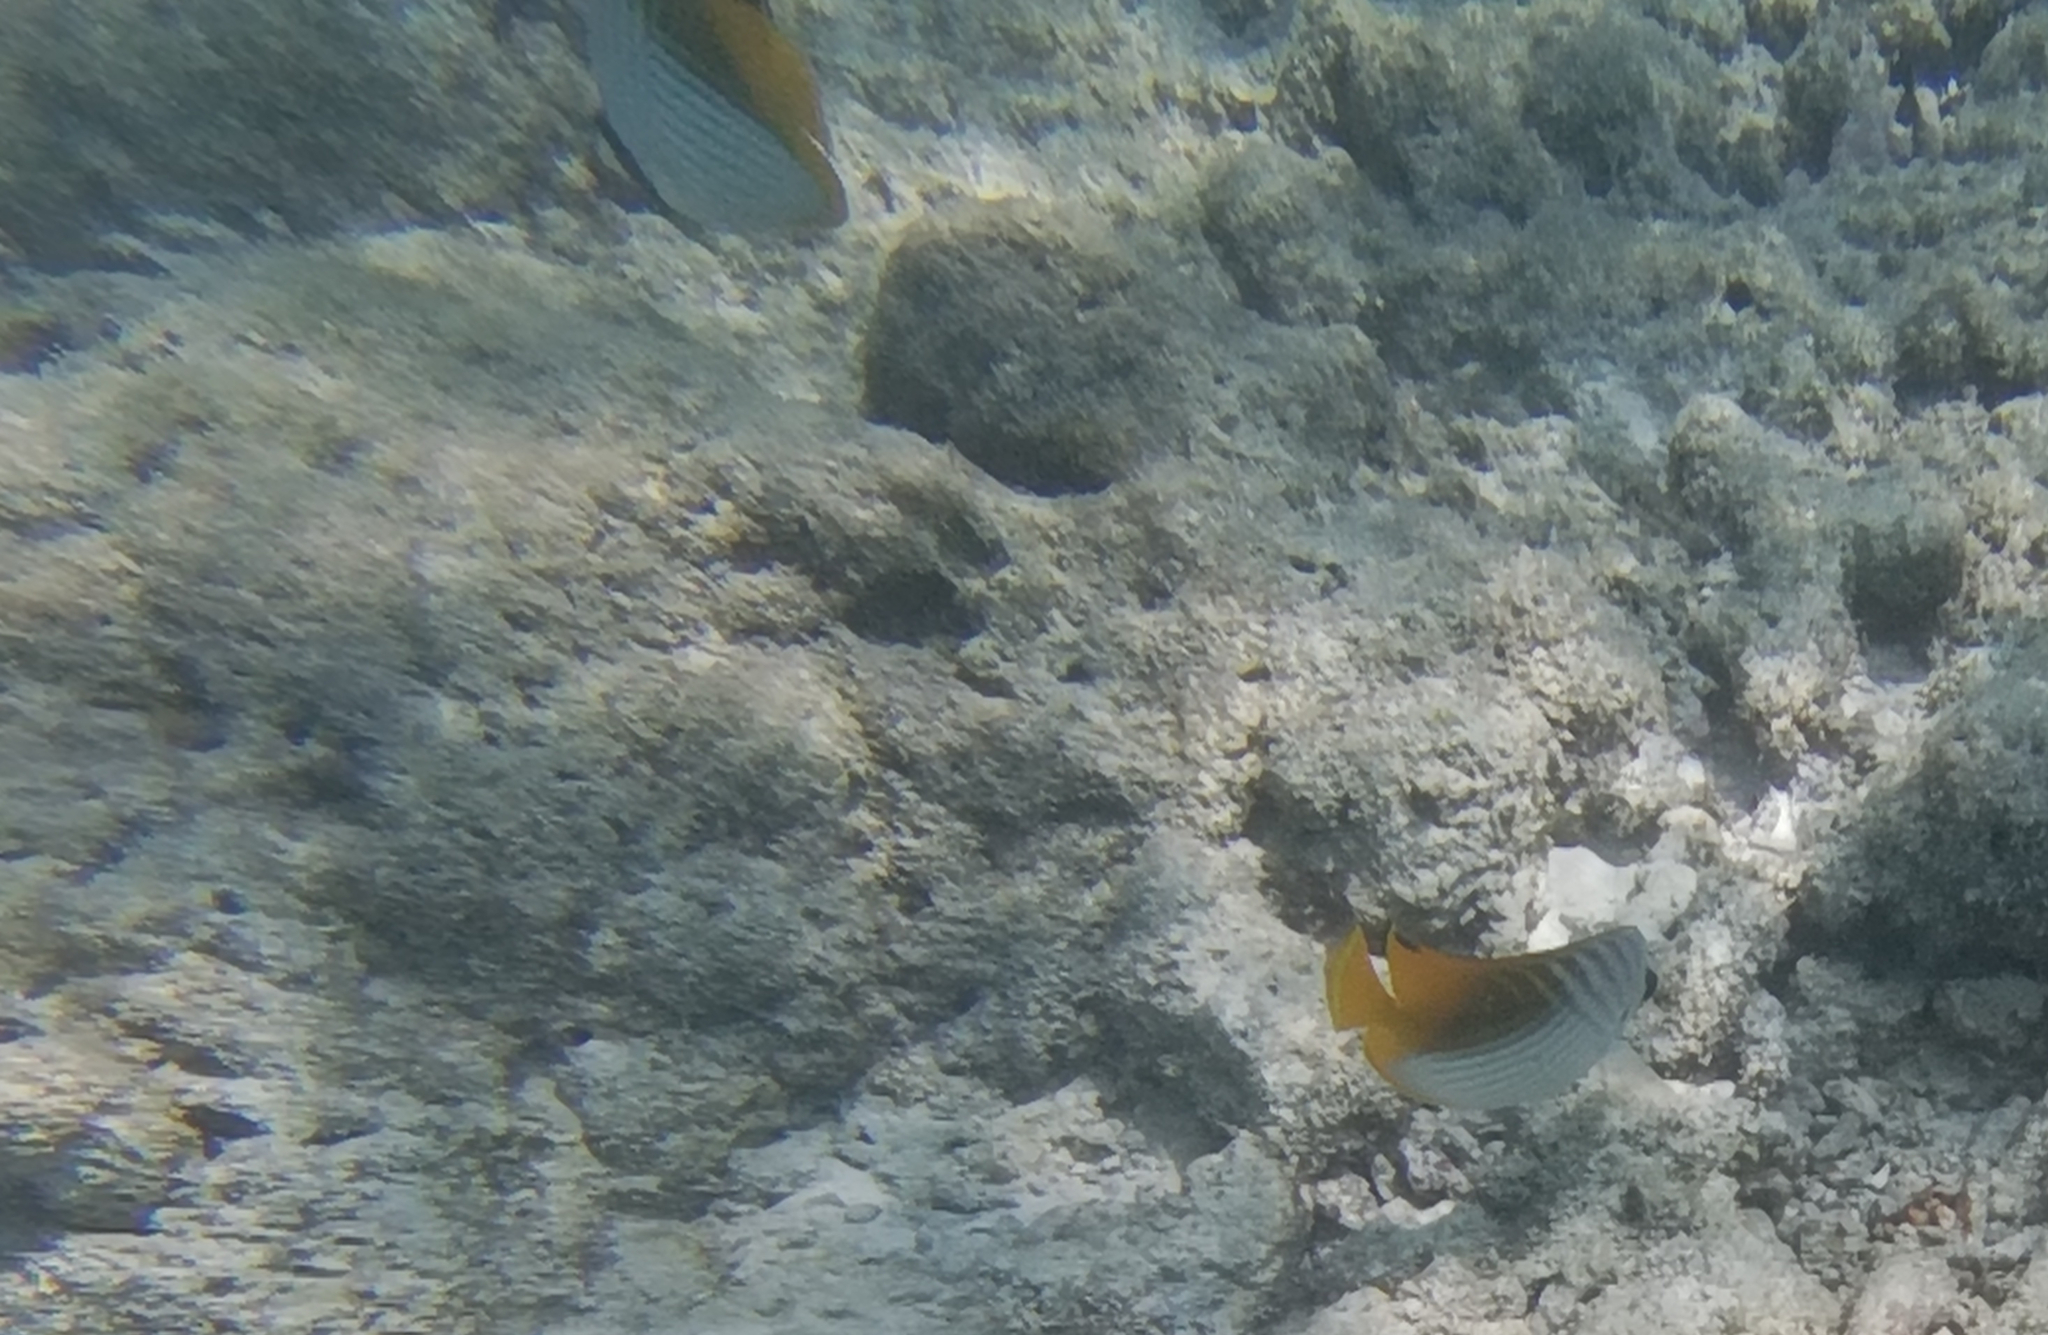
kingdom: Animalia
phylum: Chordata
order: Perciformes
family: Chaetodontidae
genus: Chaetodon
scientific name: Chaetodon auriga
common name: Threadfin butterflyfish
